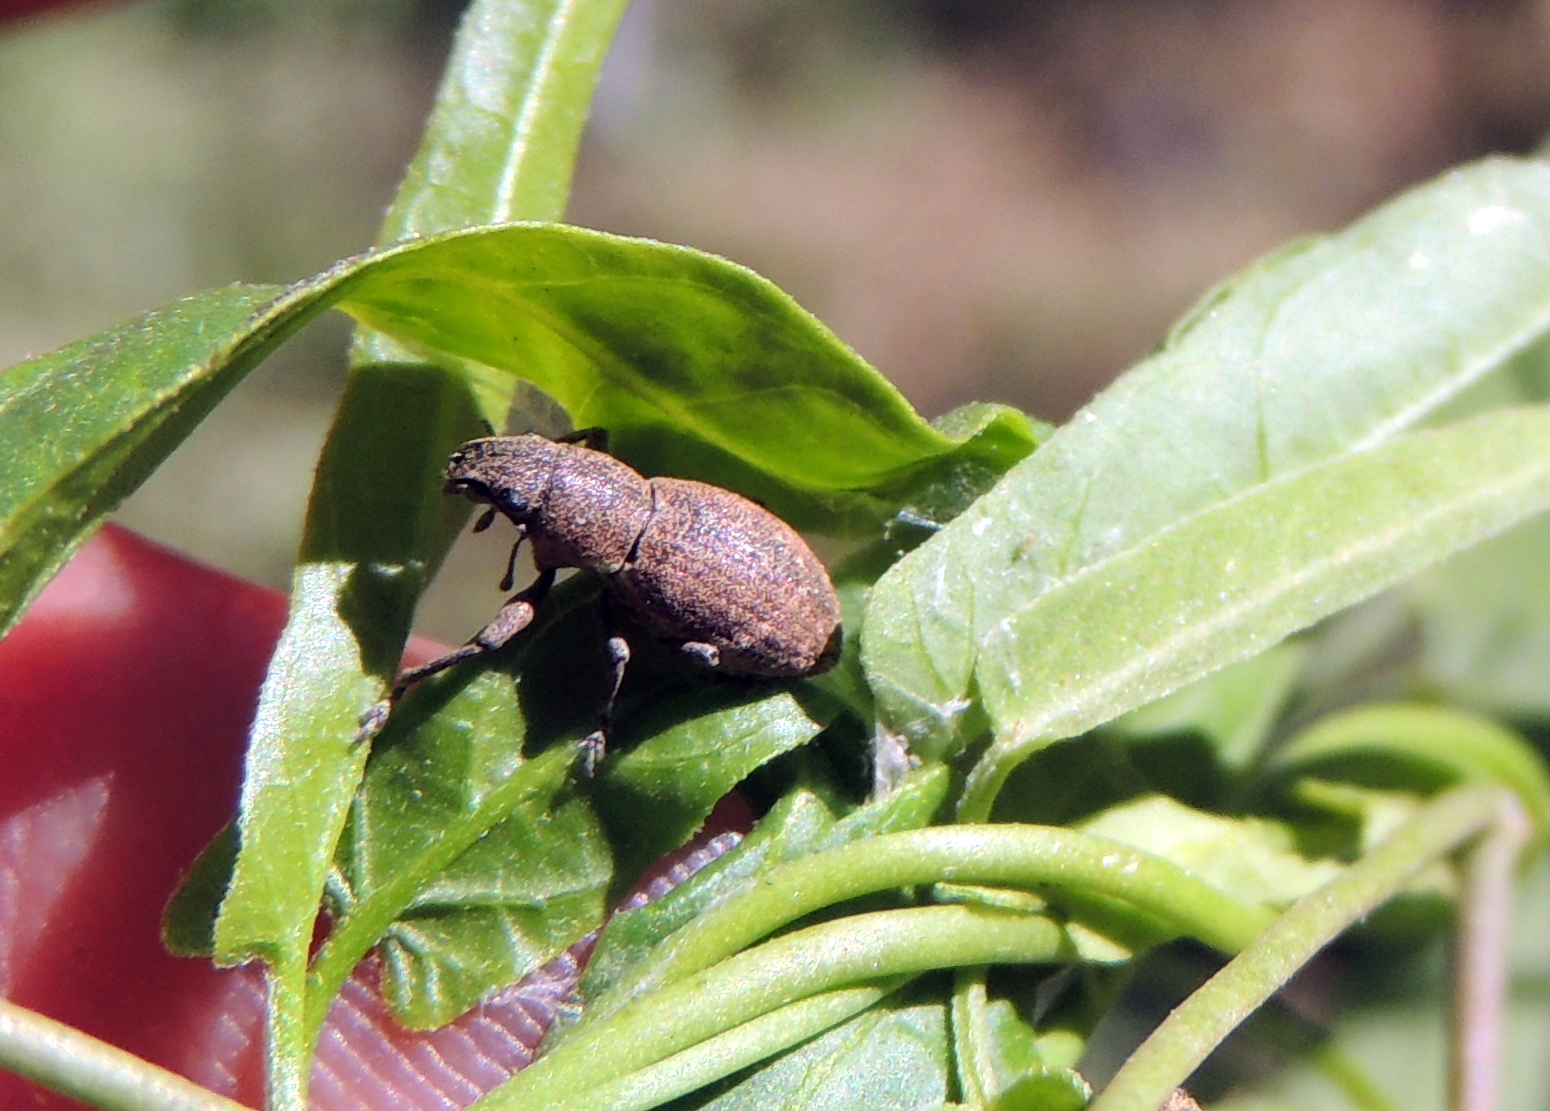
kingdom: Animalia
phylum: Arthropoda
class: Insecta
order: Coleoptera
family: Curculionidae
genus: Naupactus
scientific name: Naupactus cervinus
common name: Fuller rose beetle
